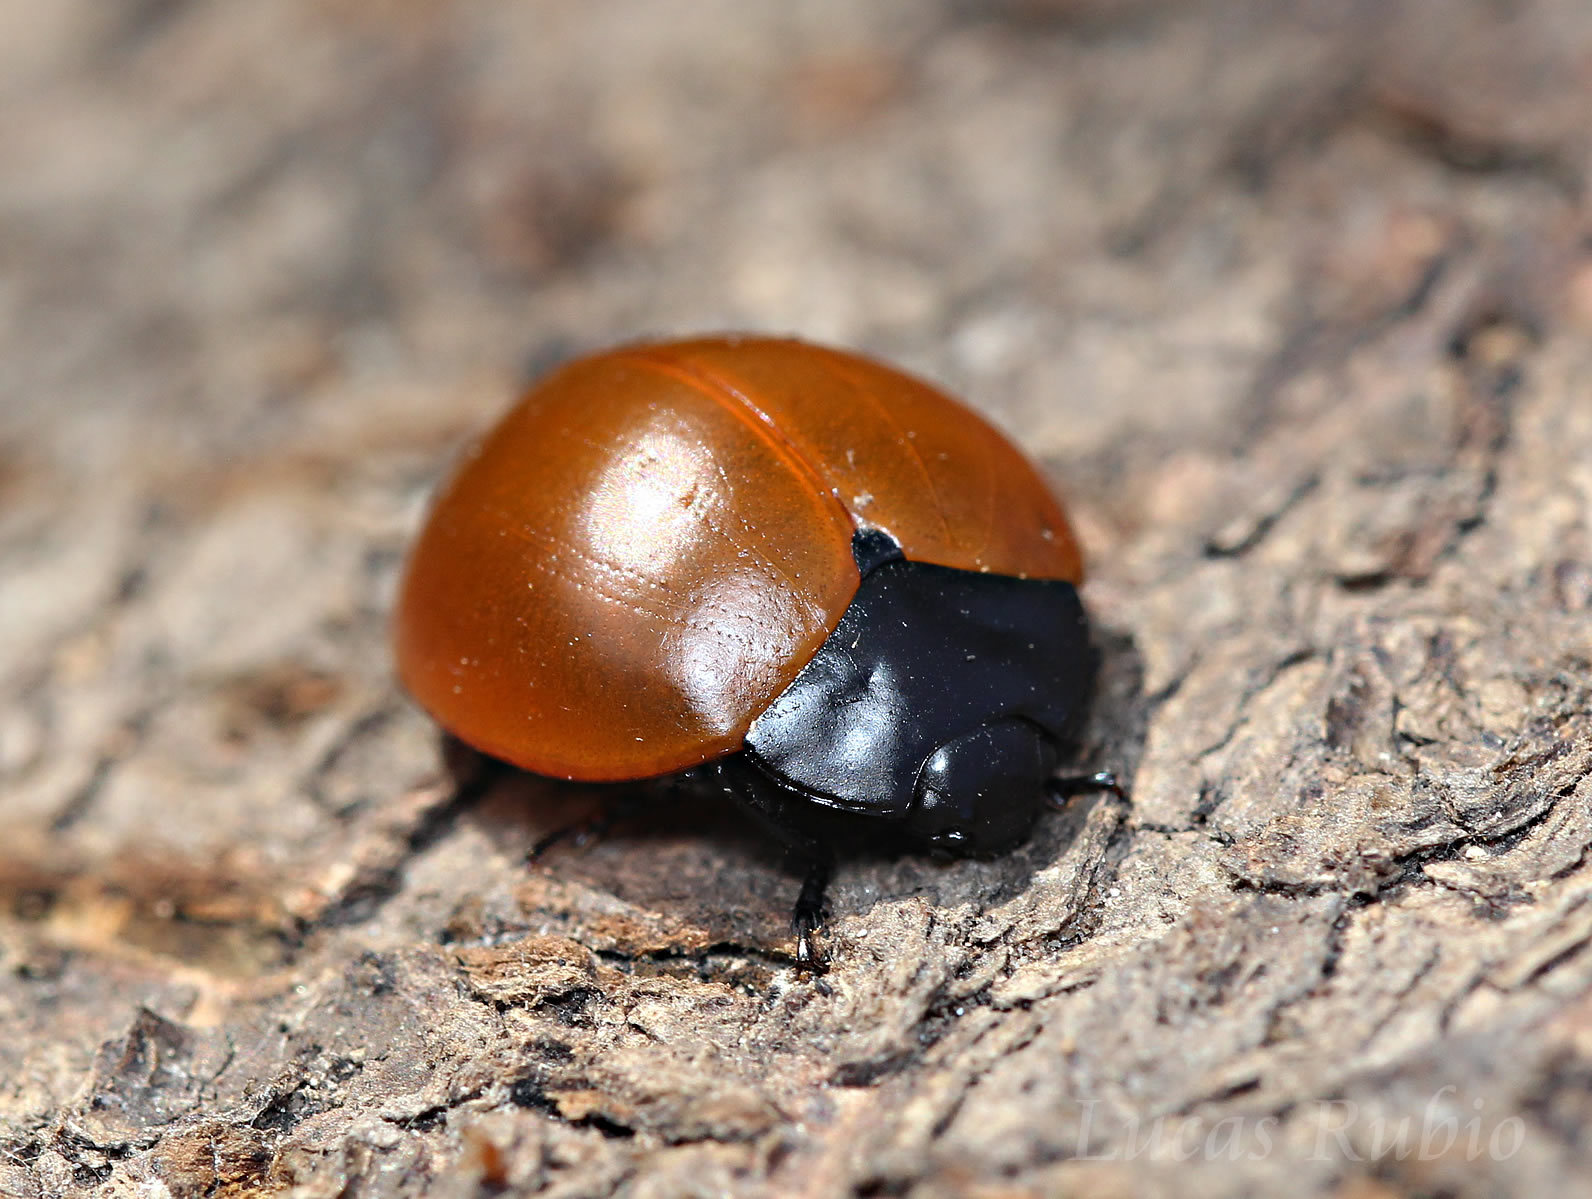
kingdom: Animalia
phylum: Arthropoda
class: Insecta
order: Coleoptera
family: Erotylidae
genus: Aegithus
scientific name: Aegithus clavicornis
